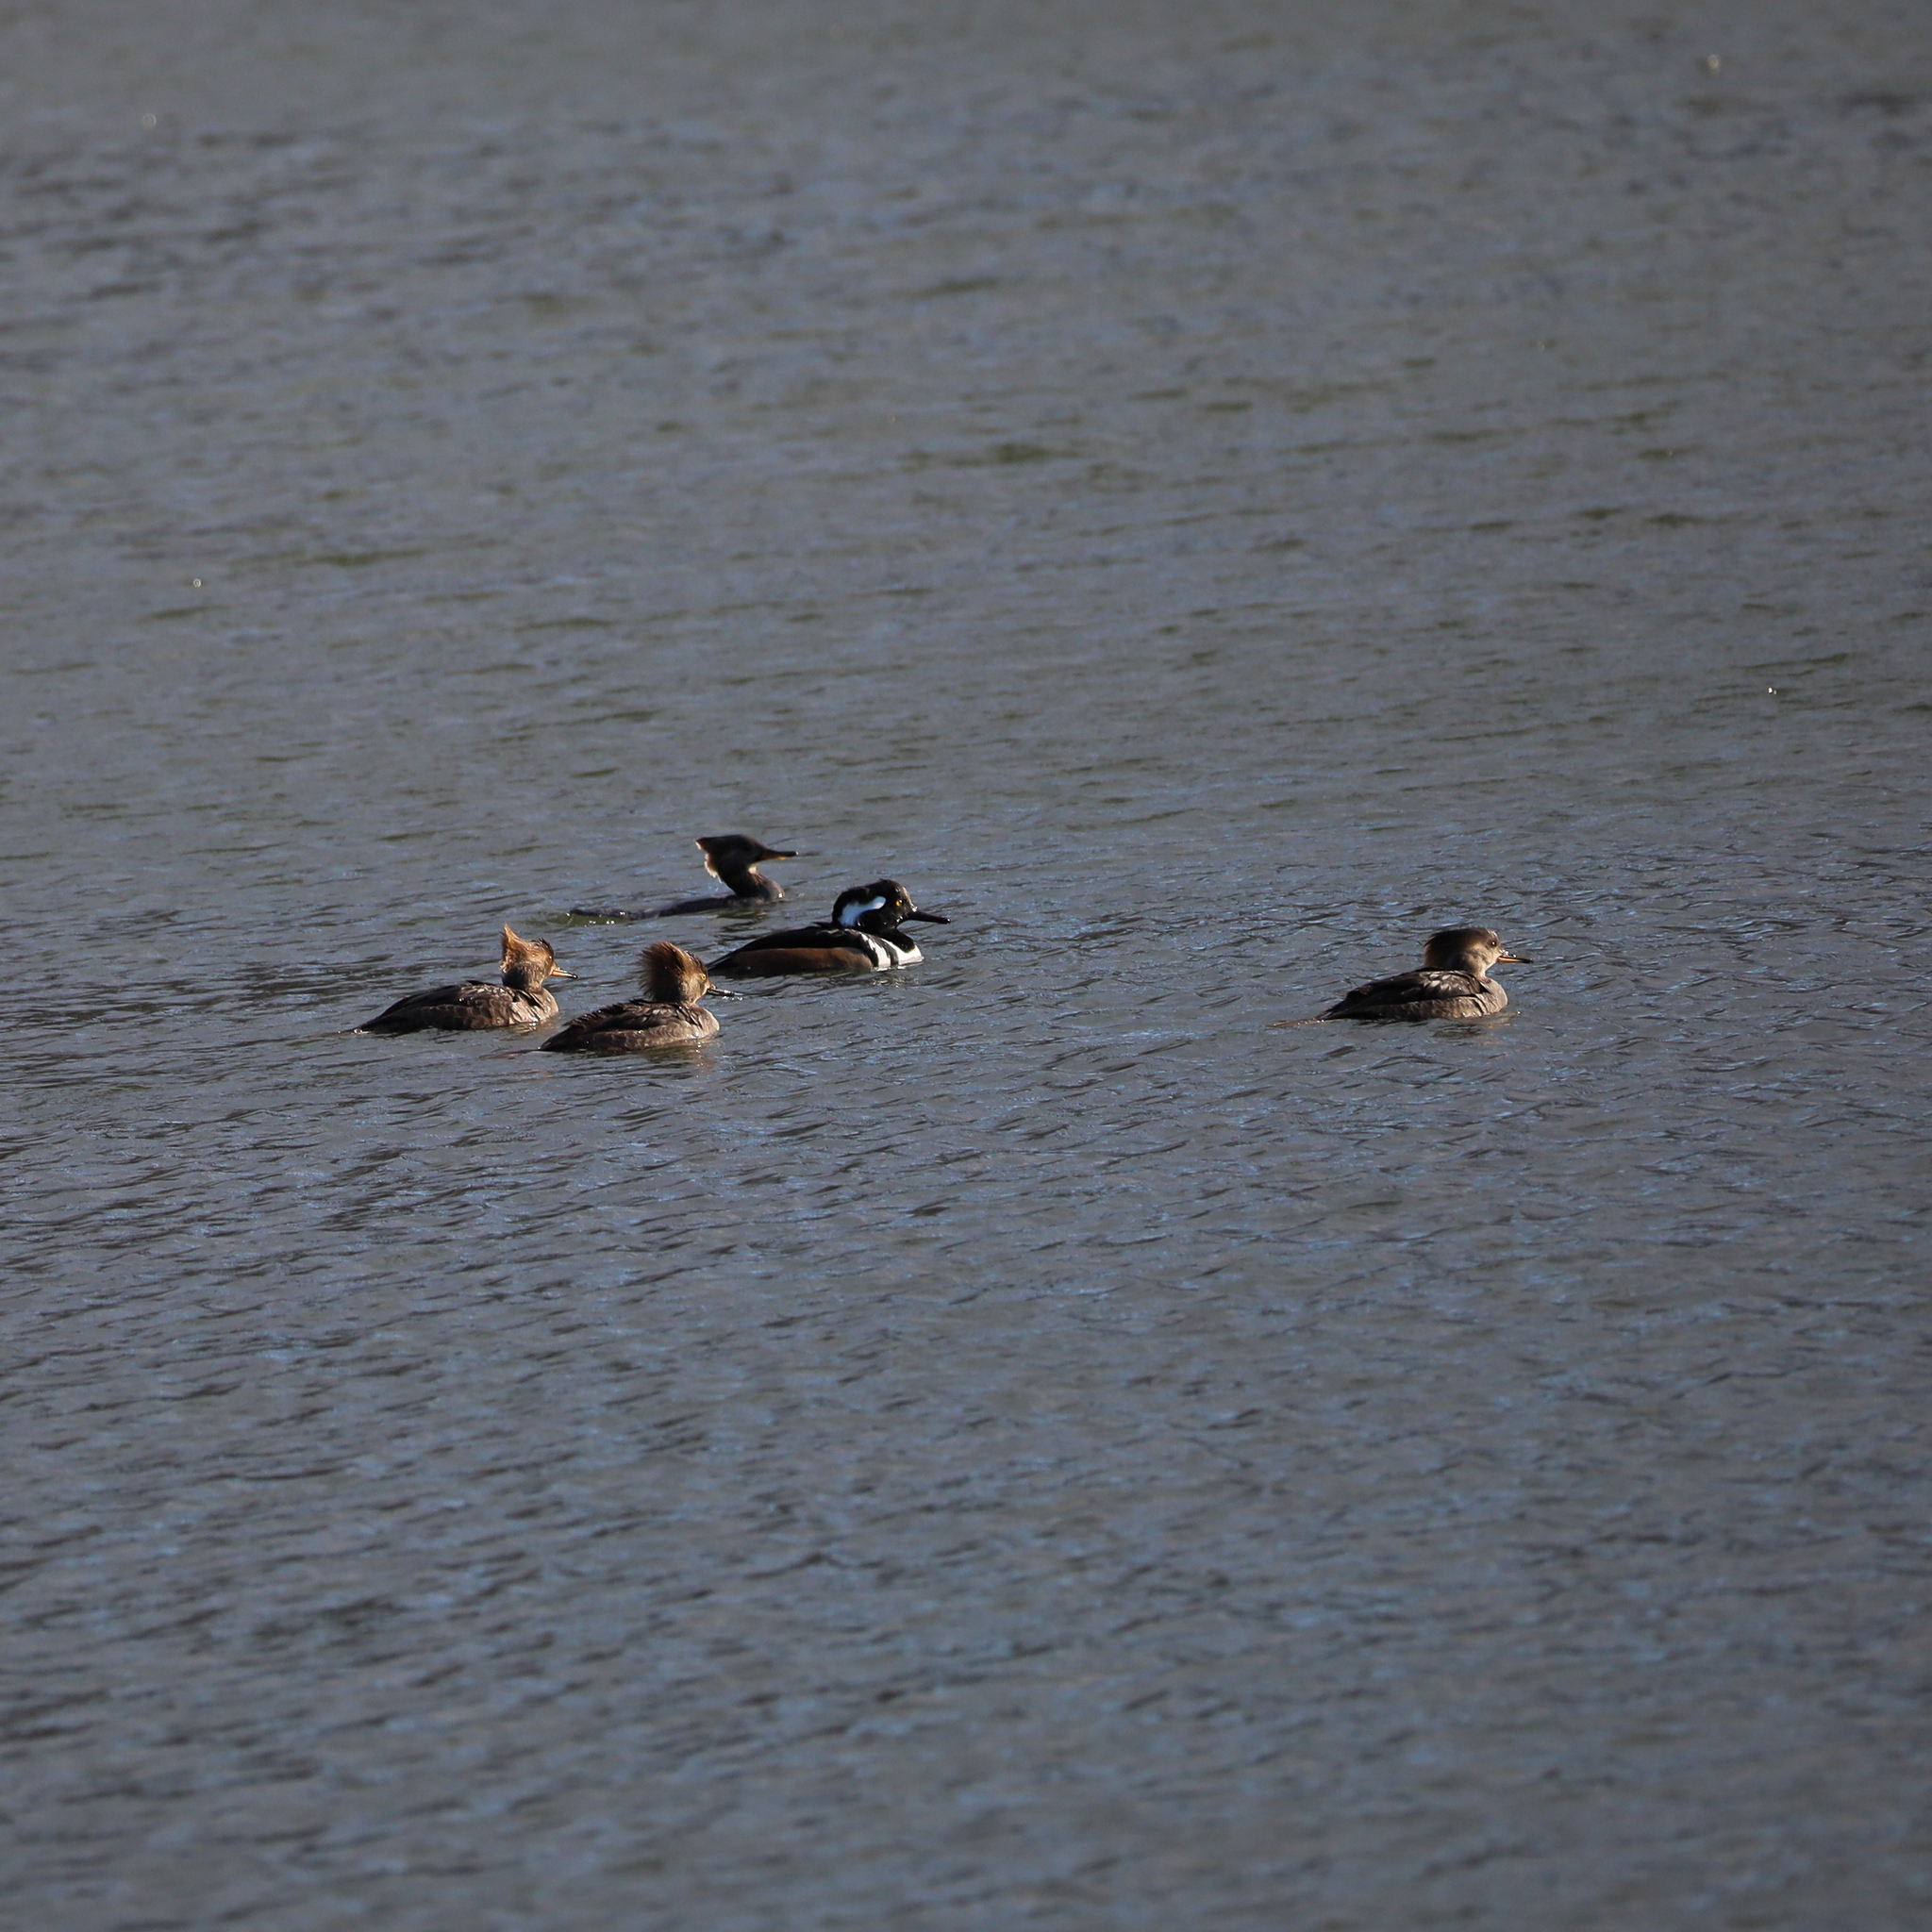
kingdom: Animalia
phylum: Chordata
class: Aves
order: Anseriformes
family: Anatidae
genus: Lophodytes
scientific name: Lophodytes cucullatus
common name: Hooded merganser
